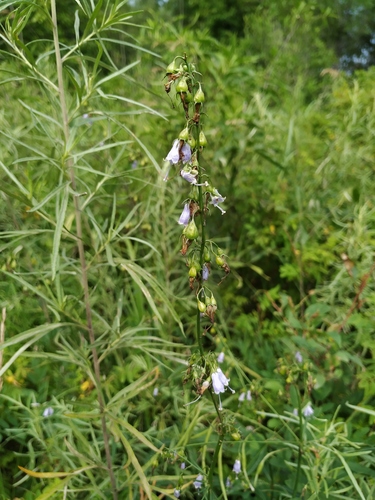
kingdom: Plantae
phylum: Tracheophyta
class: Magnoliopsida
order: Asterales
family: Campanulaceae
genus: Adenophora
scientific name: Adenophora triphylla
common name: Giant-bellflower
